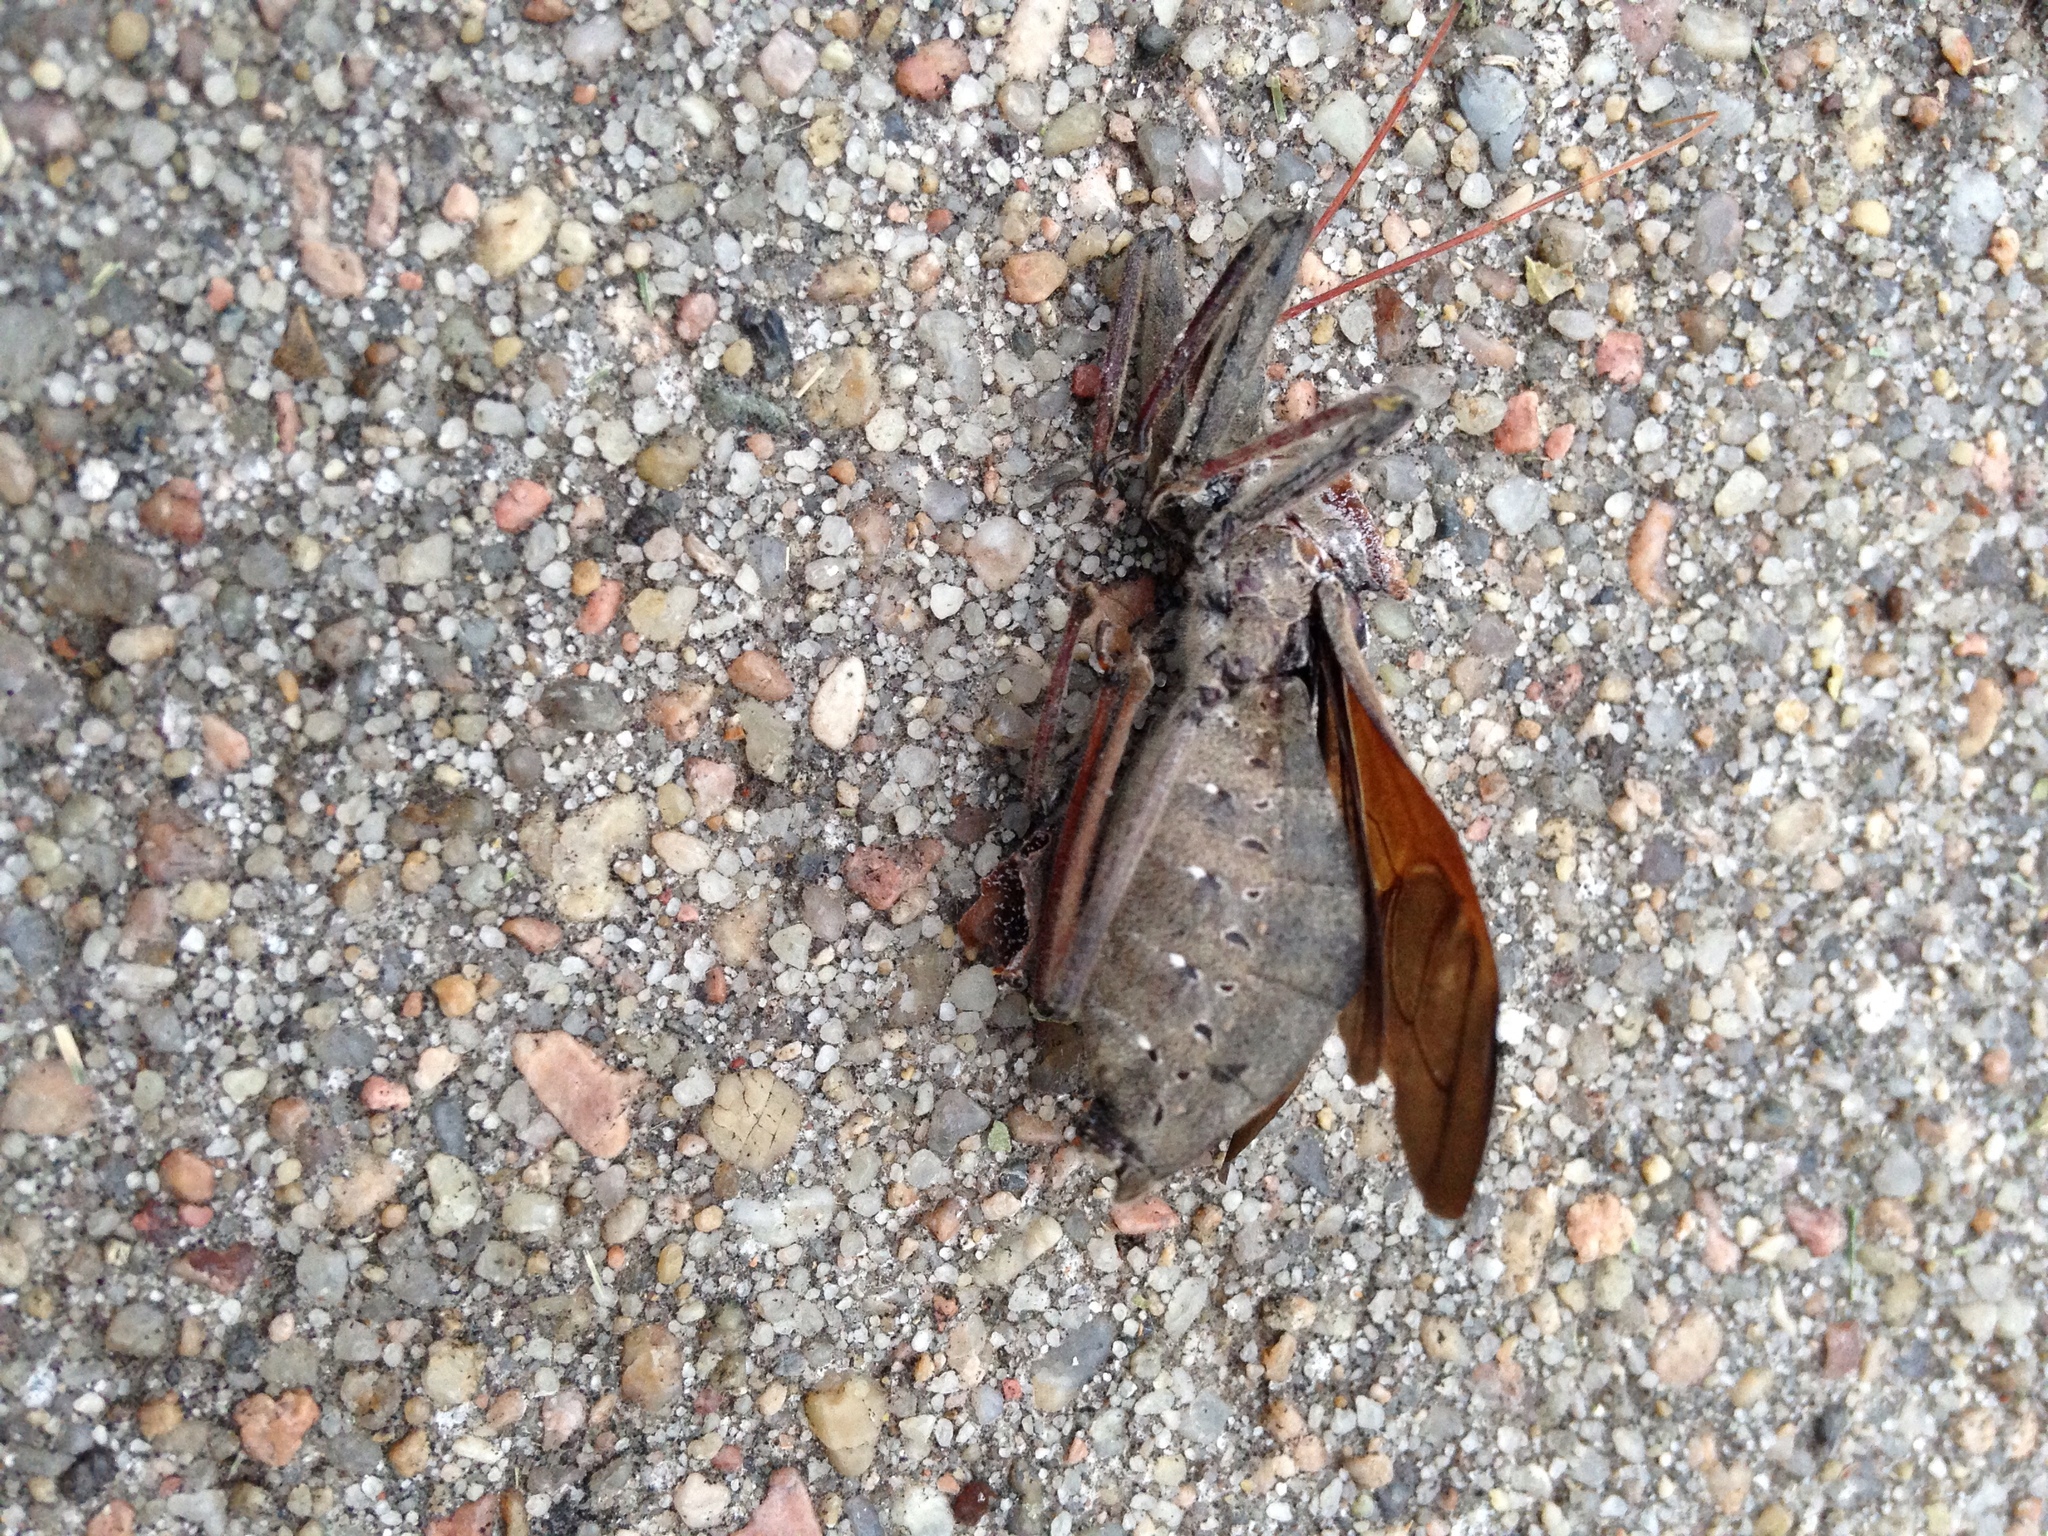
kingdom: Animalia
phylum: Arthropoda
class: Insecta
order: Hemiptera
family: Reduviidae
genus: Arilus
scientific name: Arilus cristatus
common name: North american wheel bug
